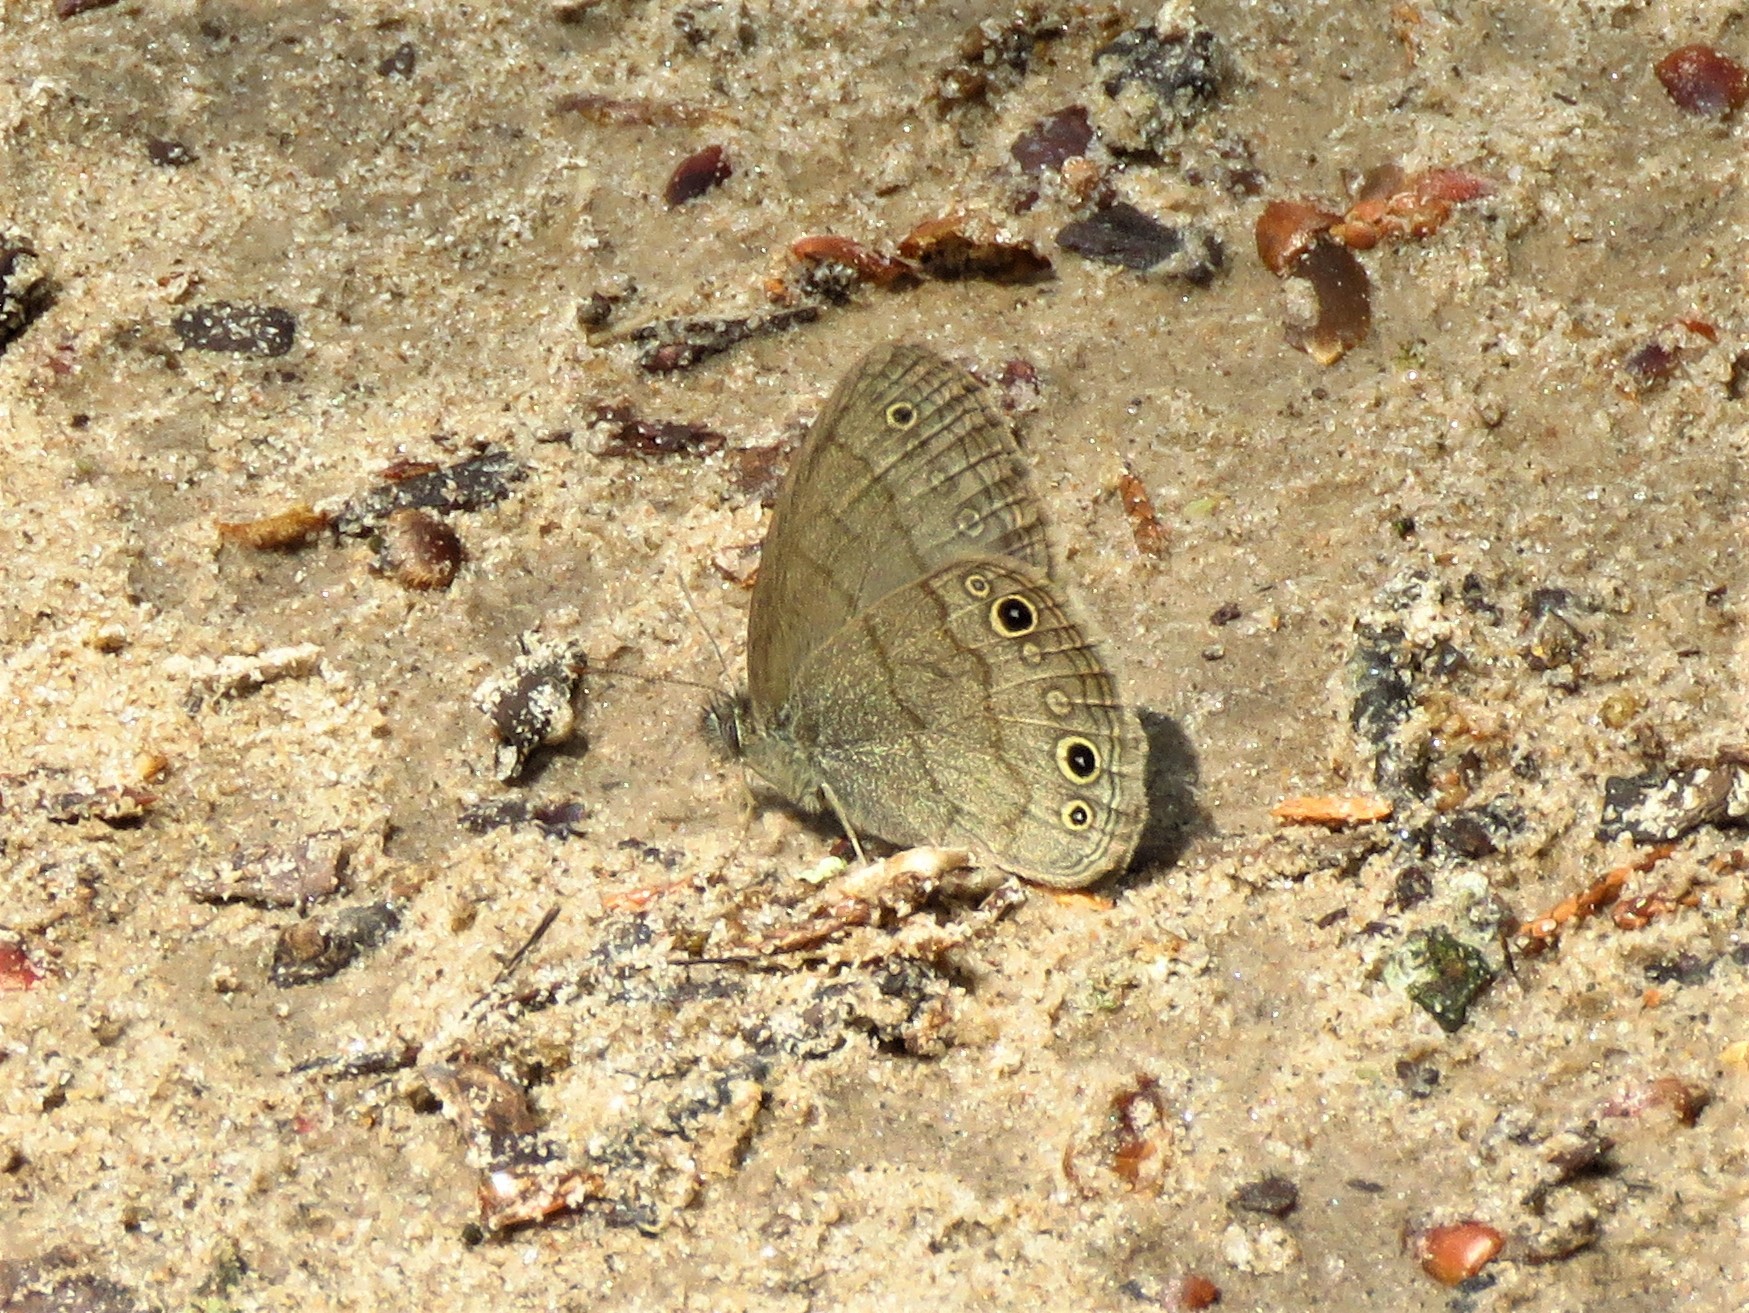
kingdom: Animalia
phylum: Arthropoda
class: Insecta
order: Lepidoptera
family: Nymphalidae
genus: Hermeuptychia
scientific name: Hermeuptychia hermes
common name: Hermes satyr
